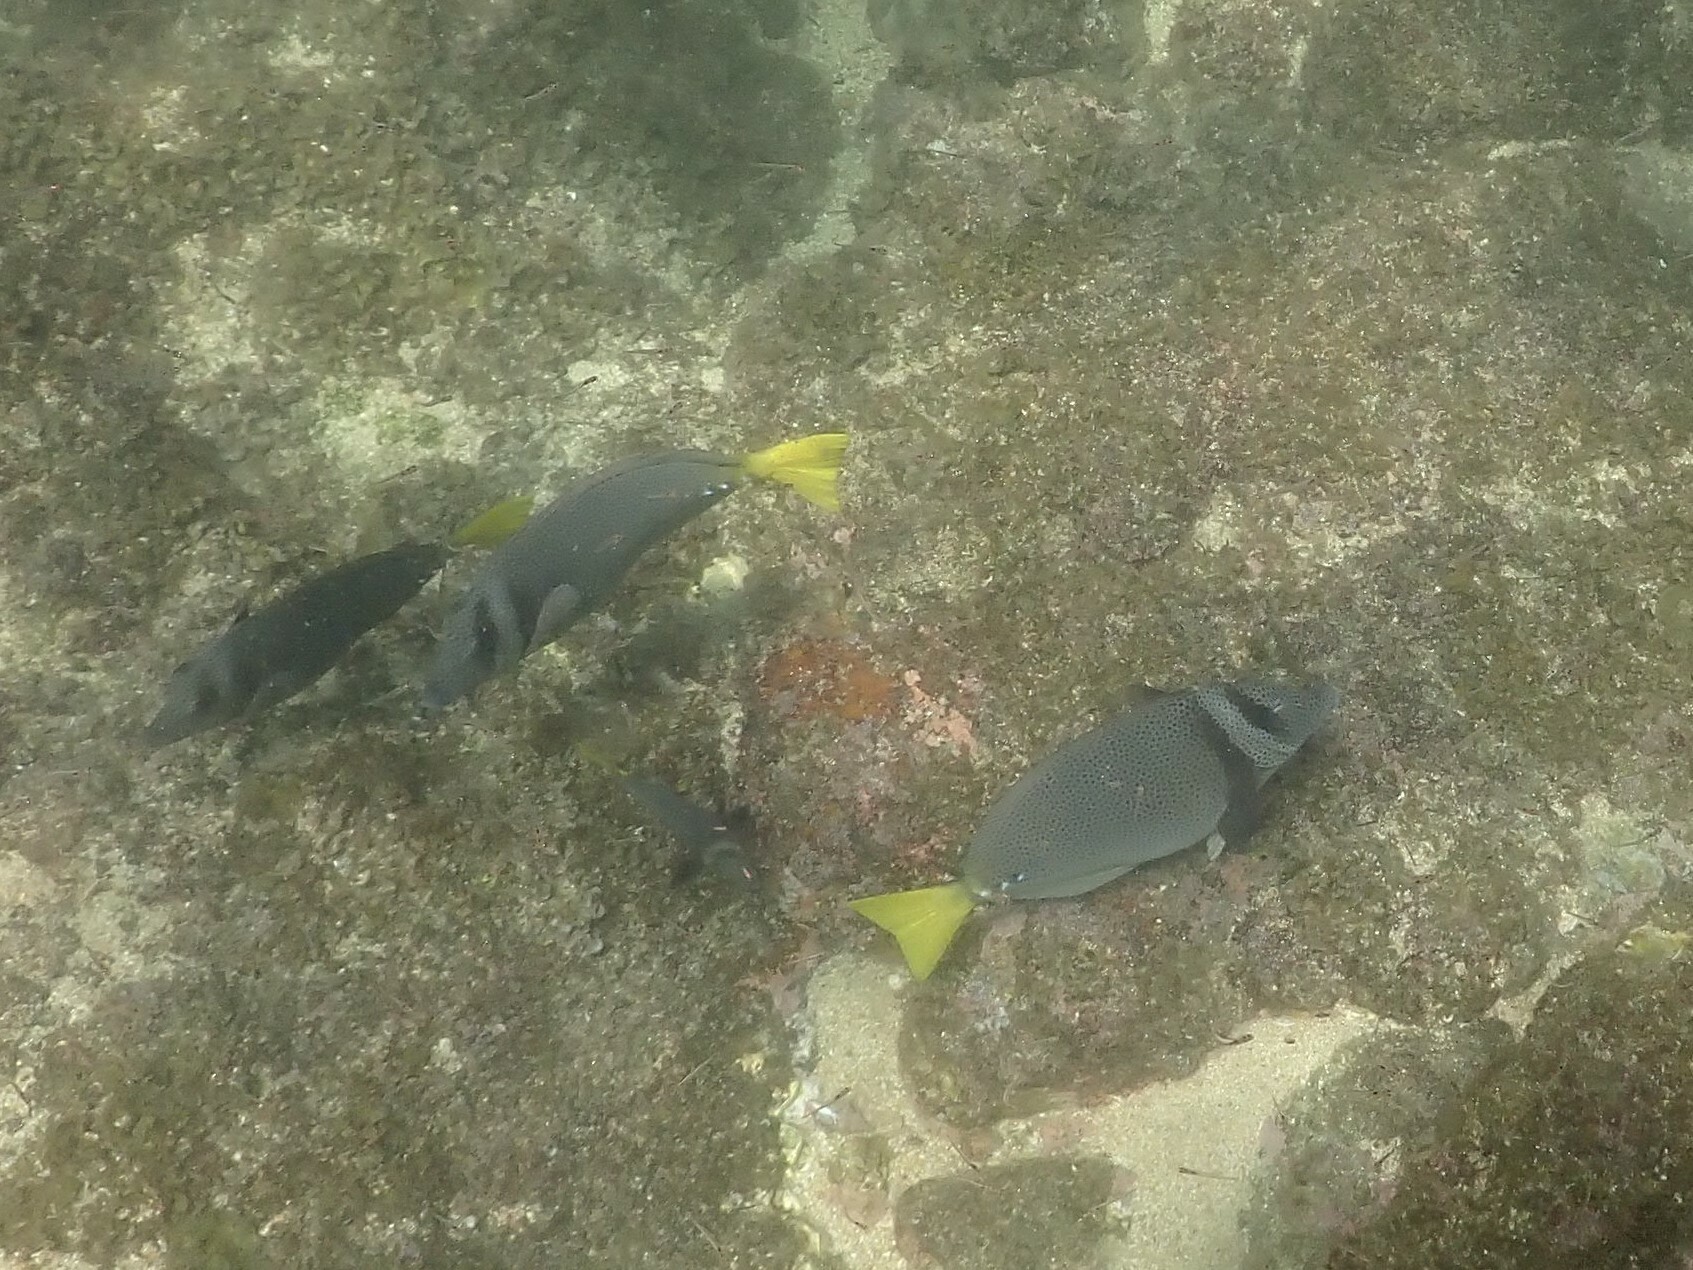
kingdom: Animalia
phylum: Chordata
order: Perciformes
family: Acanthuridae
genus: Prionurus
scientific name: Prionurus laticlavius
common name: Razor surgeonfish
